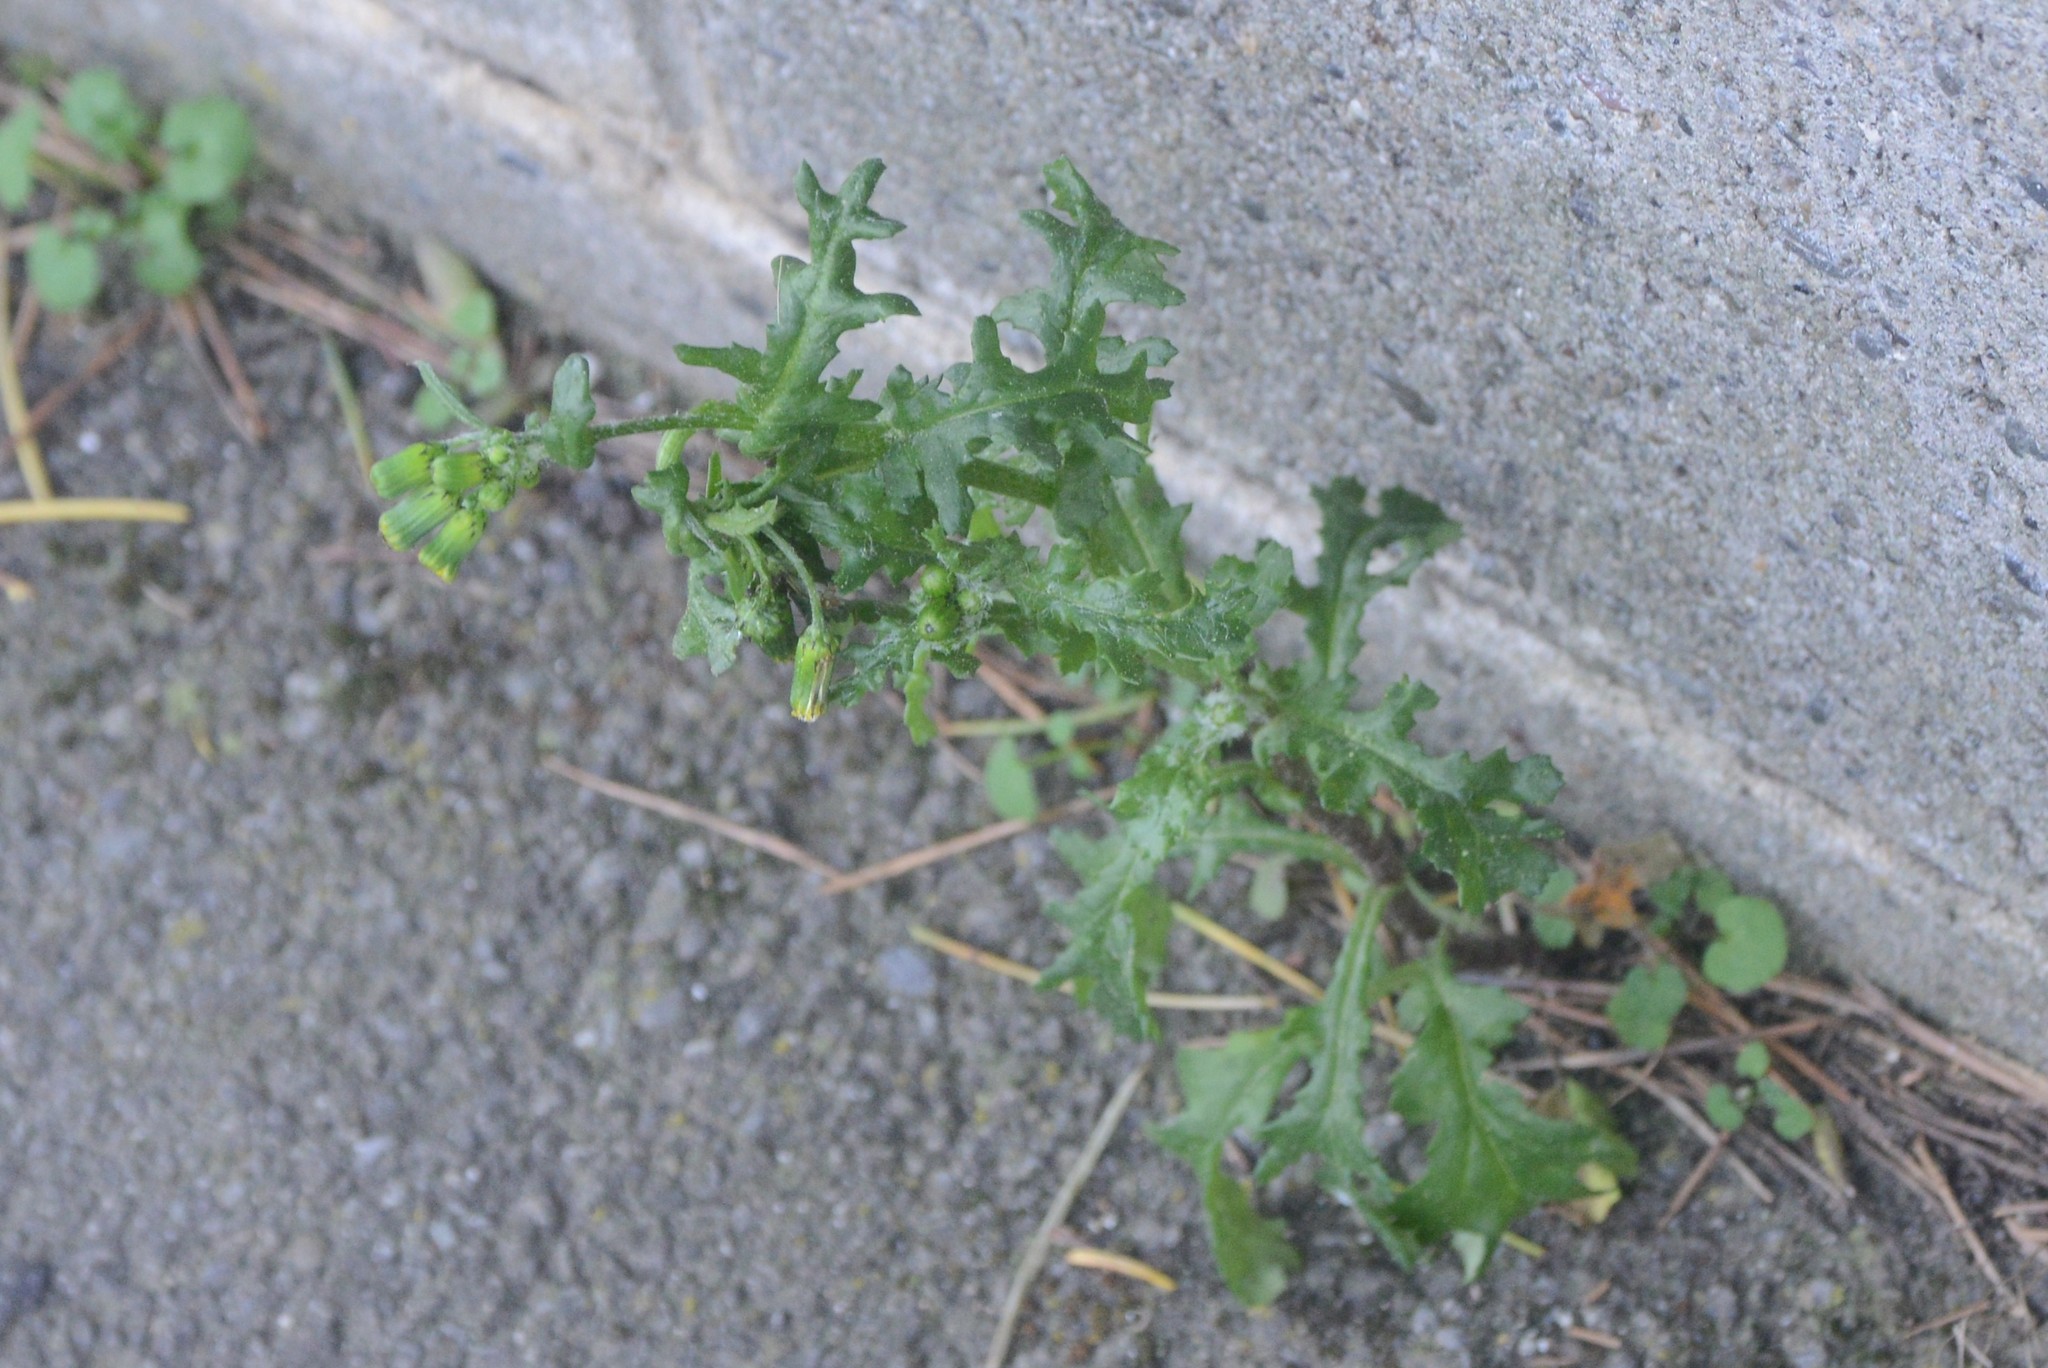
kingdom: Plantae
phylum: Tracheophyta
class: Magnoliopsida
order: Asterales
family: Asteraceae
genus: Senecio
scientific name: Senecio vulgaris
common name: Old-man-in-the-spring
